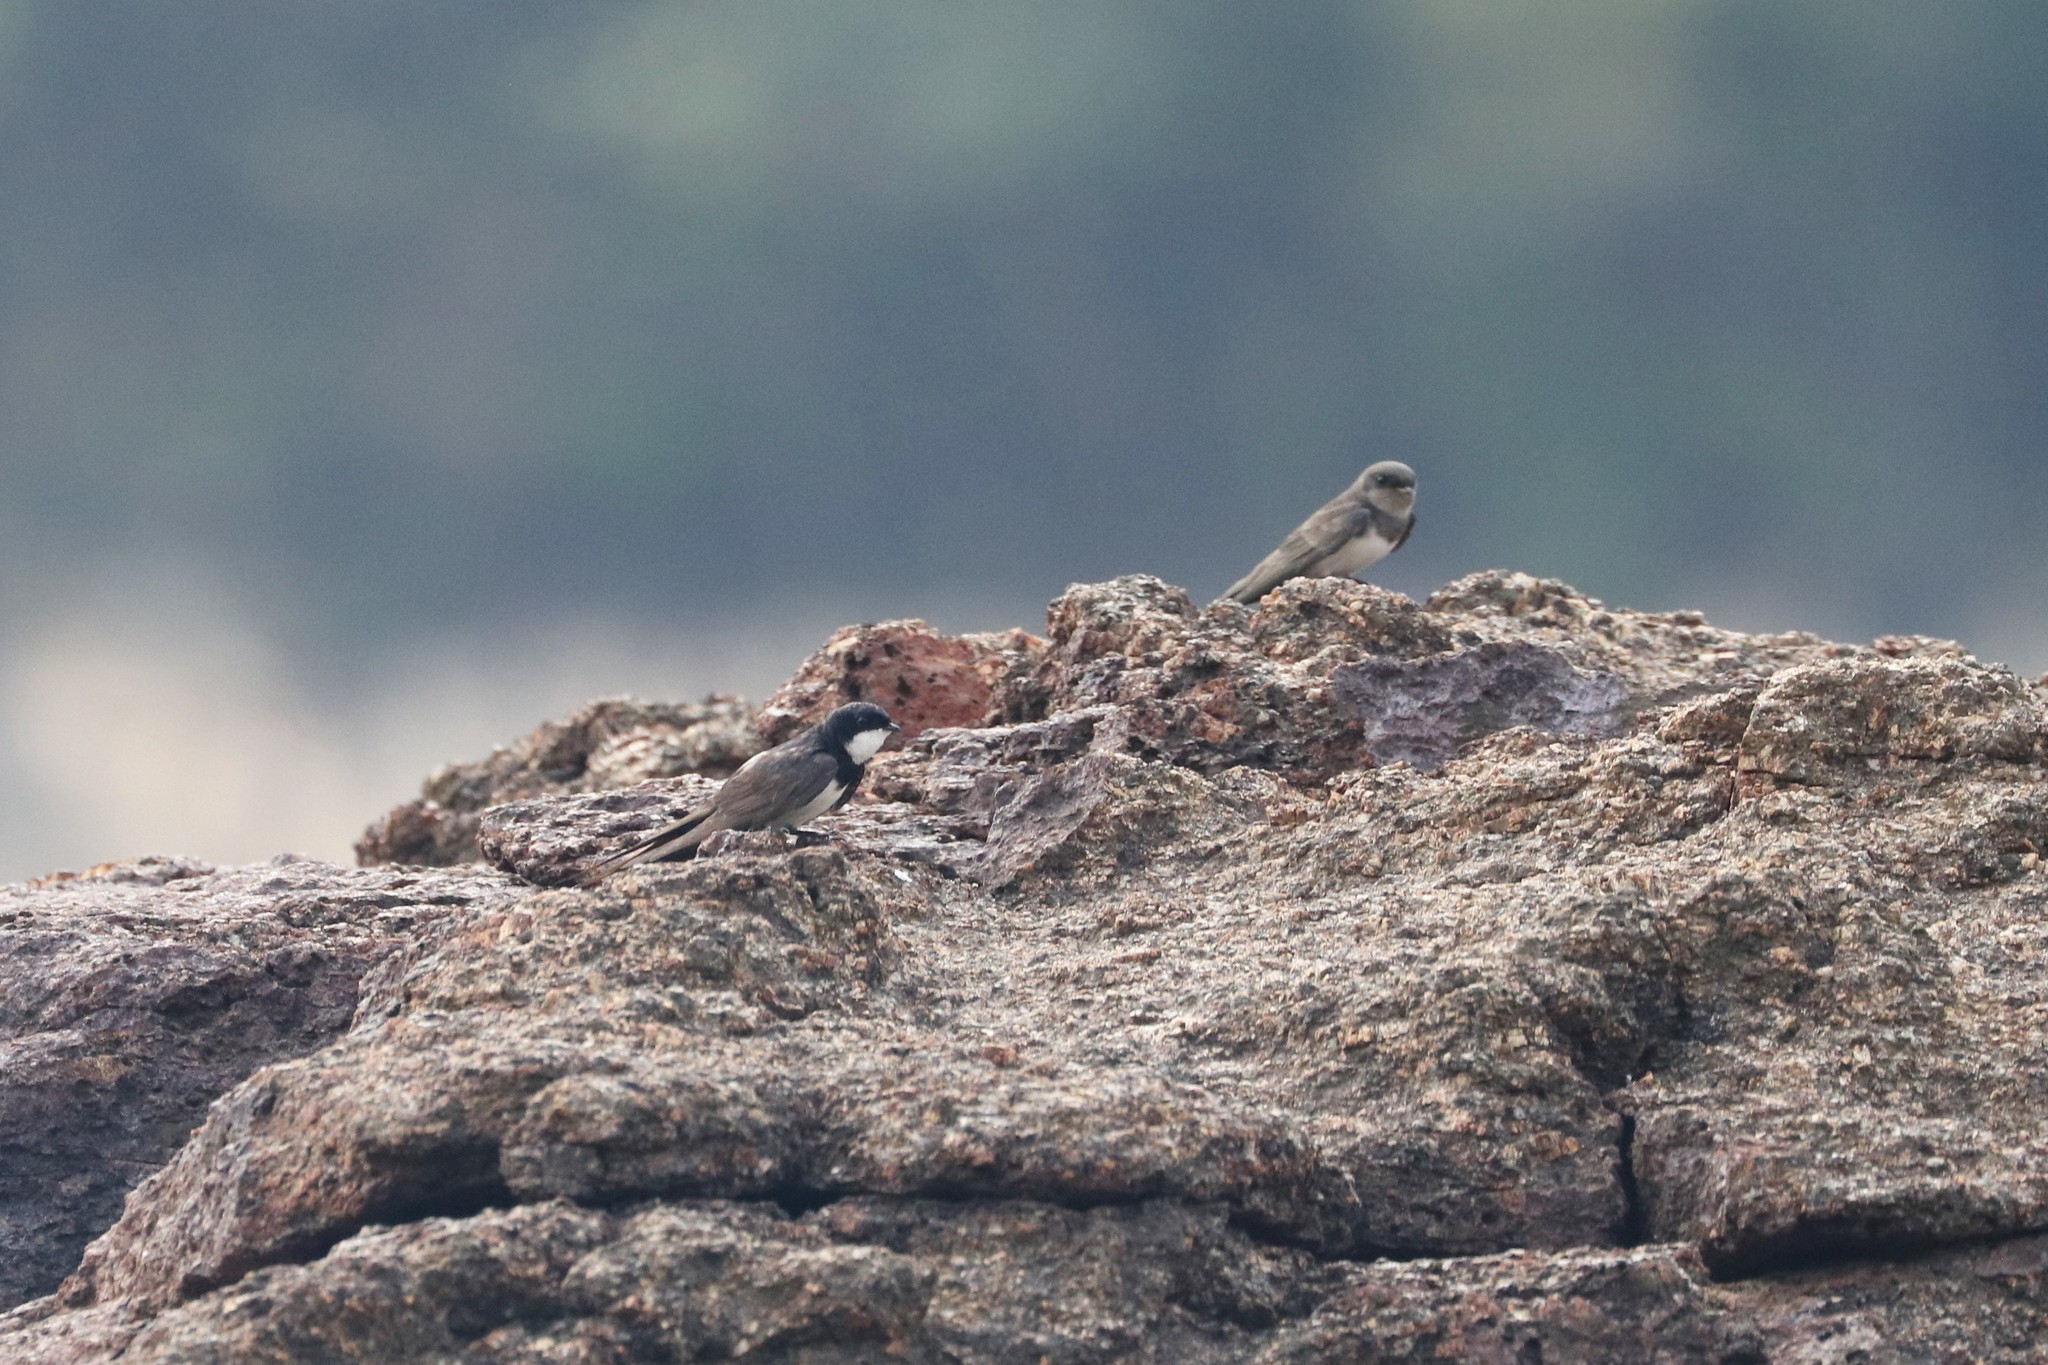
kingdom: Animalia
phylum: Chordata
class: Aves
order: Passeriformes
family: Hirundinidae
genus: Atticora
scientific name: Atticora melanoleuca
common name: Black-collared swallow
